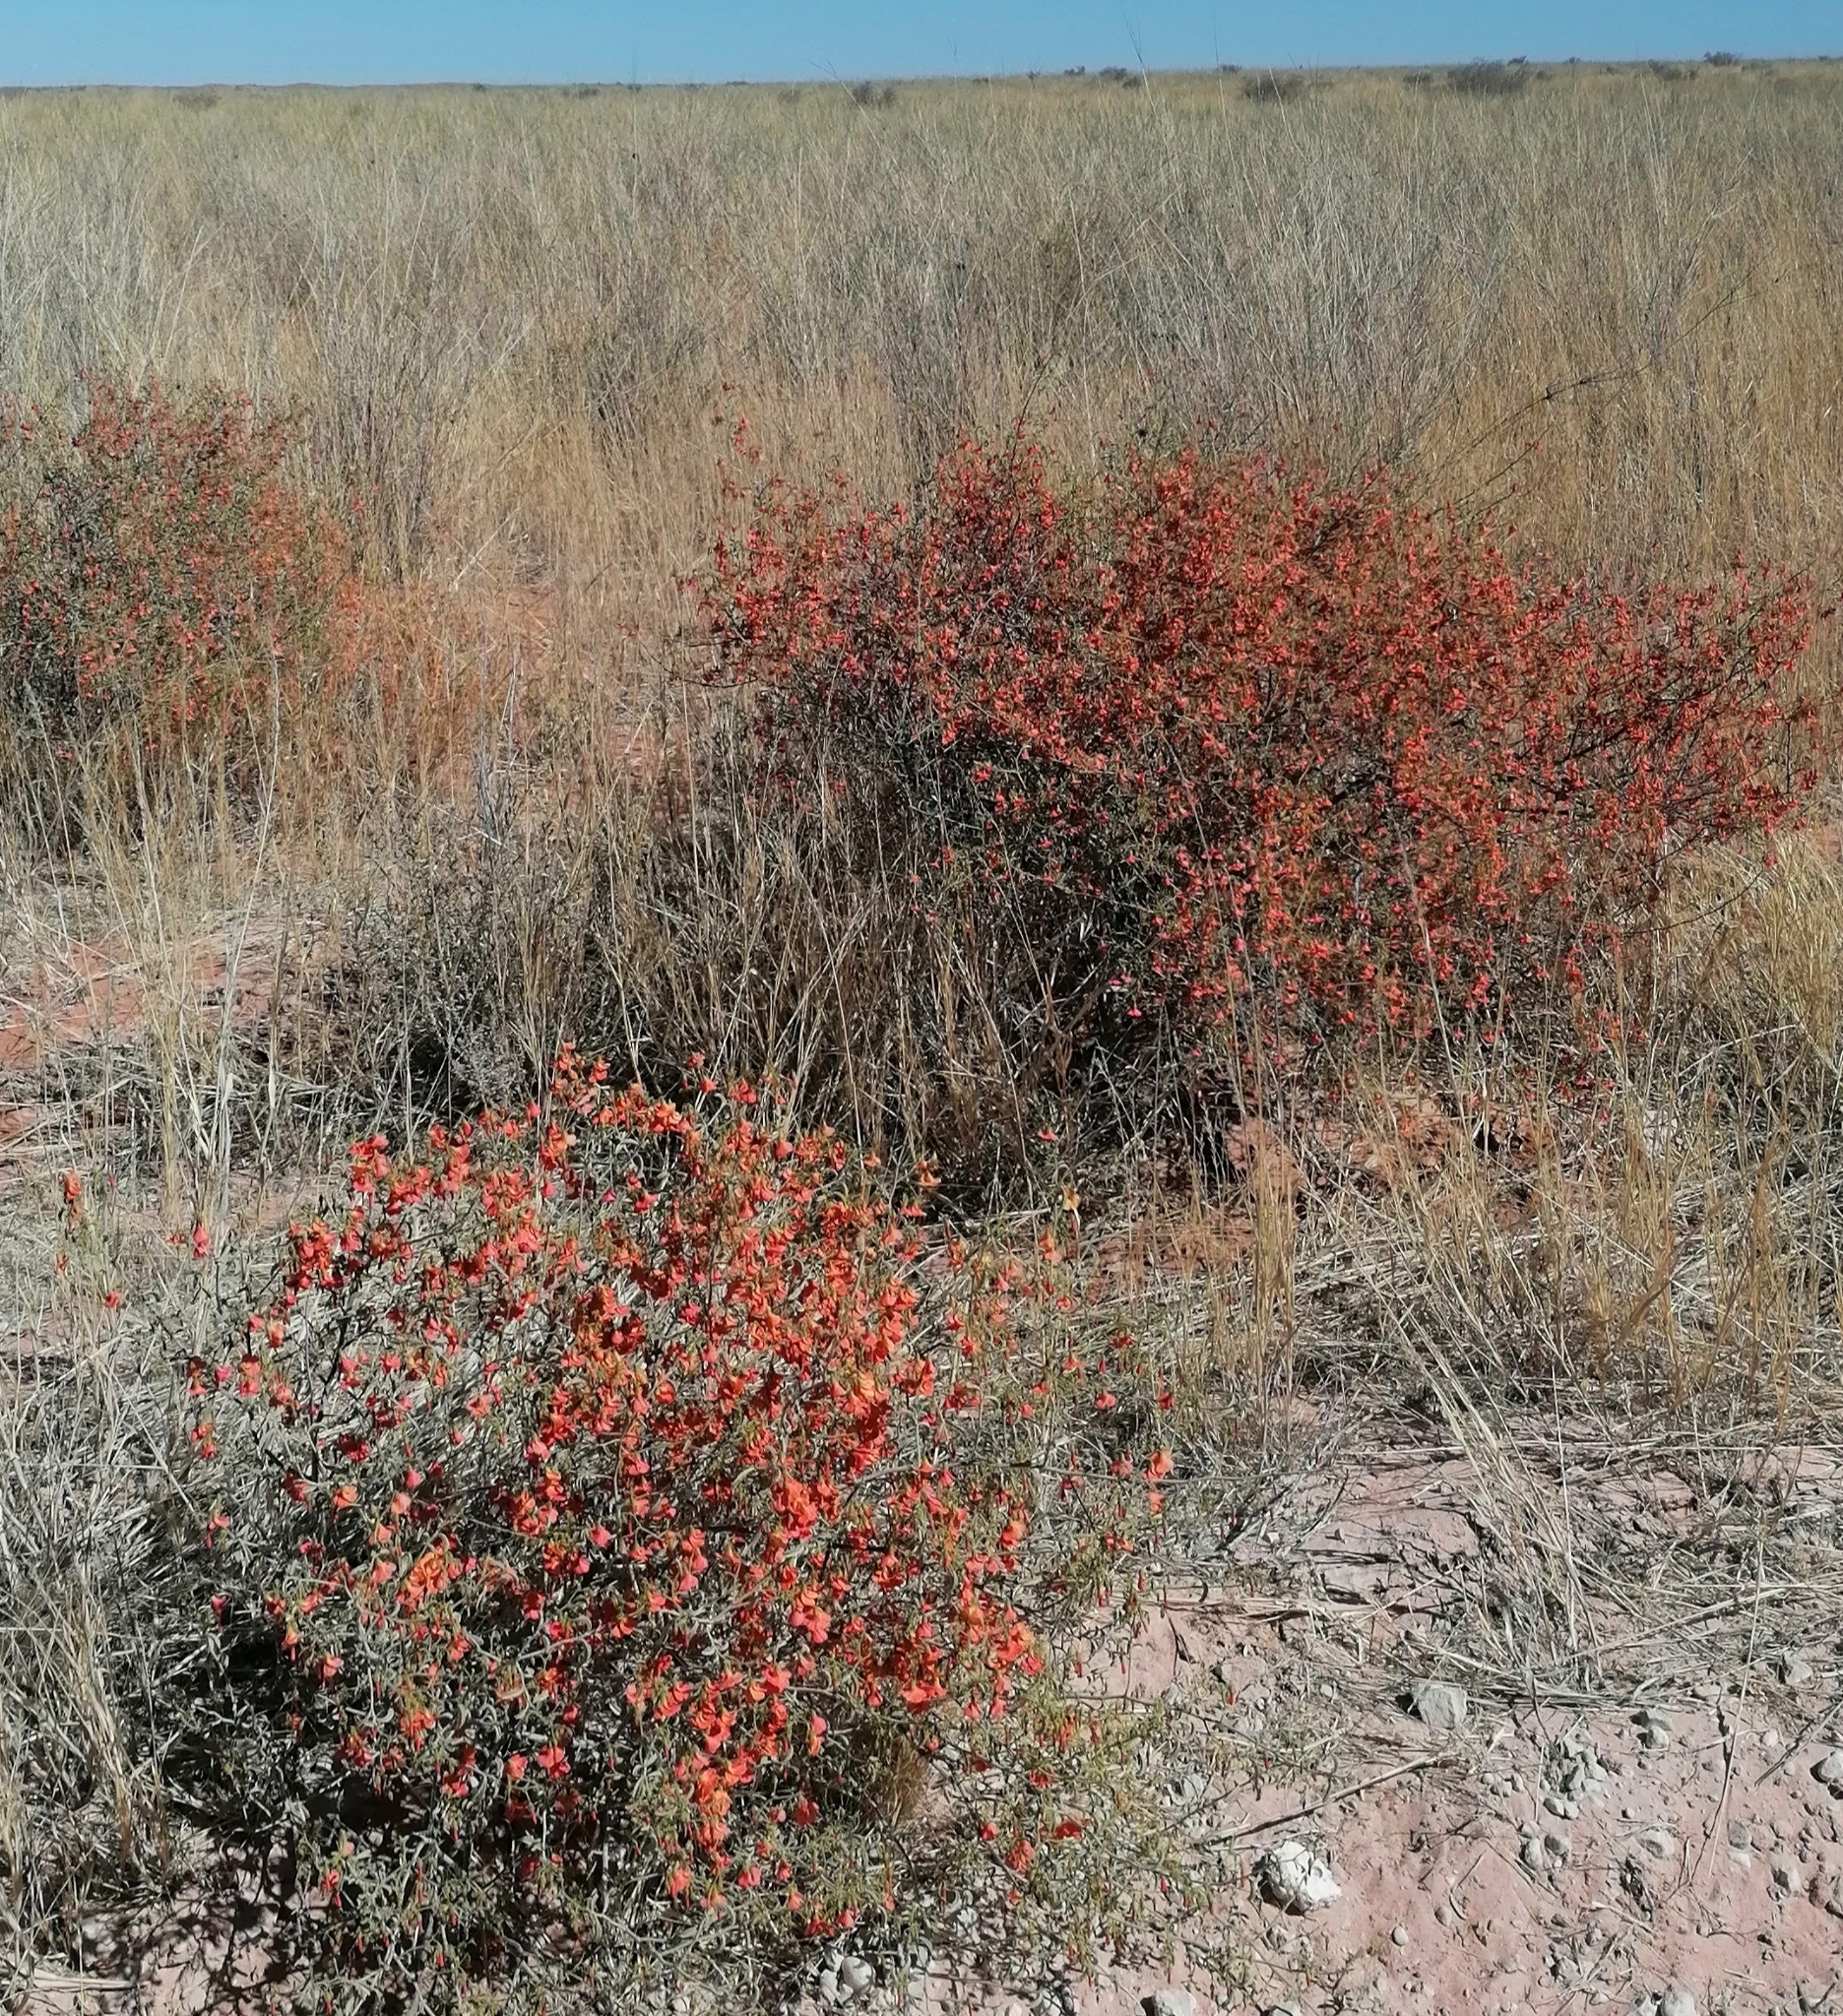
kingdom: Plantae
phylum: Tracheophyta
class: Magnoliopsida
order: Malvales
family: Malvaceae
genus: Hermannia
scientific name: Hermannia burchellii
